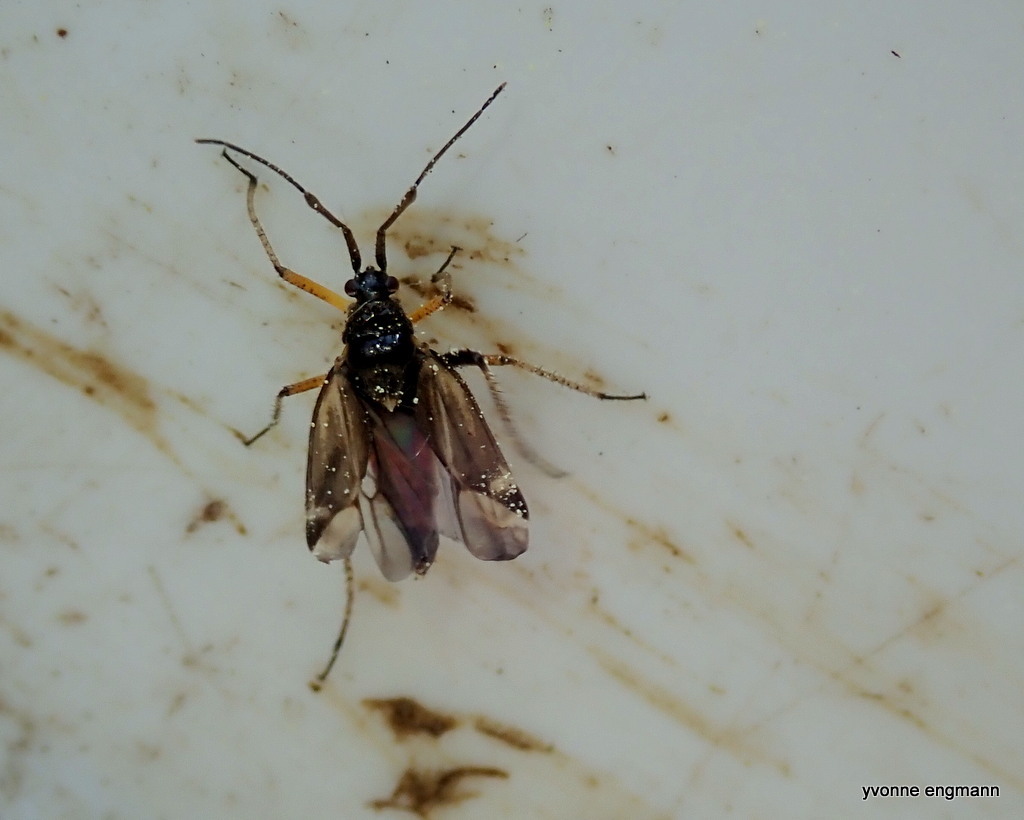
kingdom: Animalia
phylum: Arthropoda
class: Insecta
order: Hemiptera
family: Miridae
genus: Harpocera
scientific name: Harpocera thoracica
